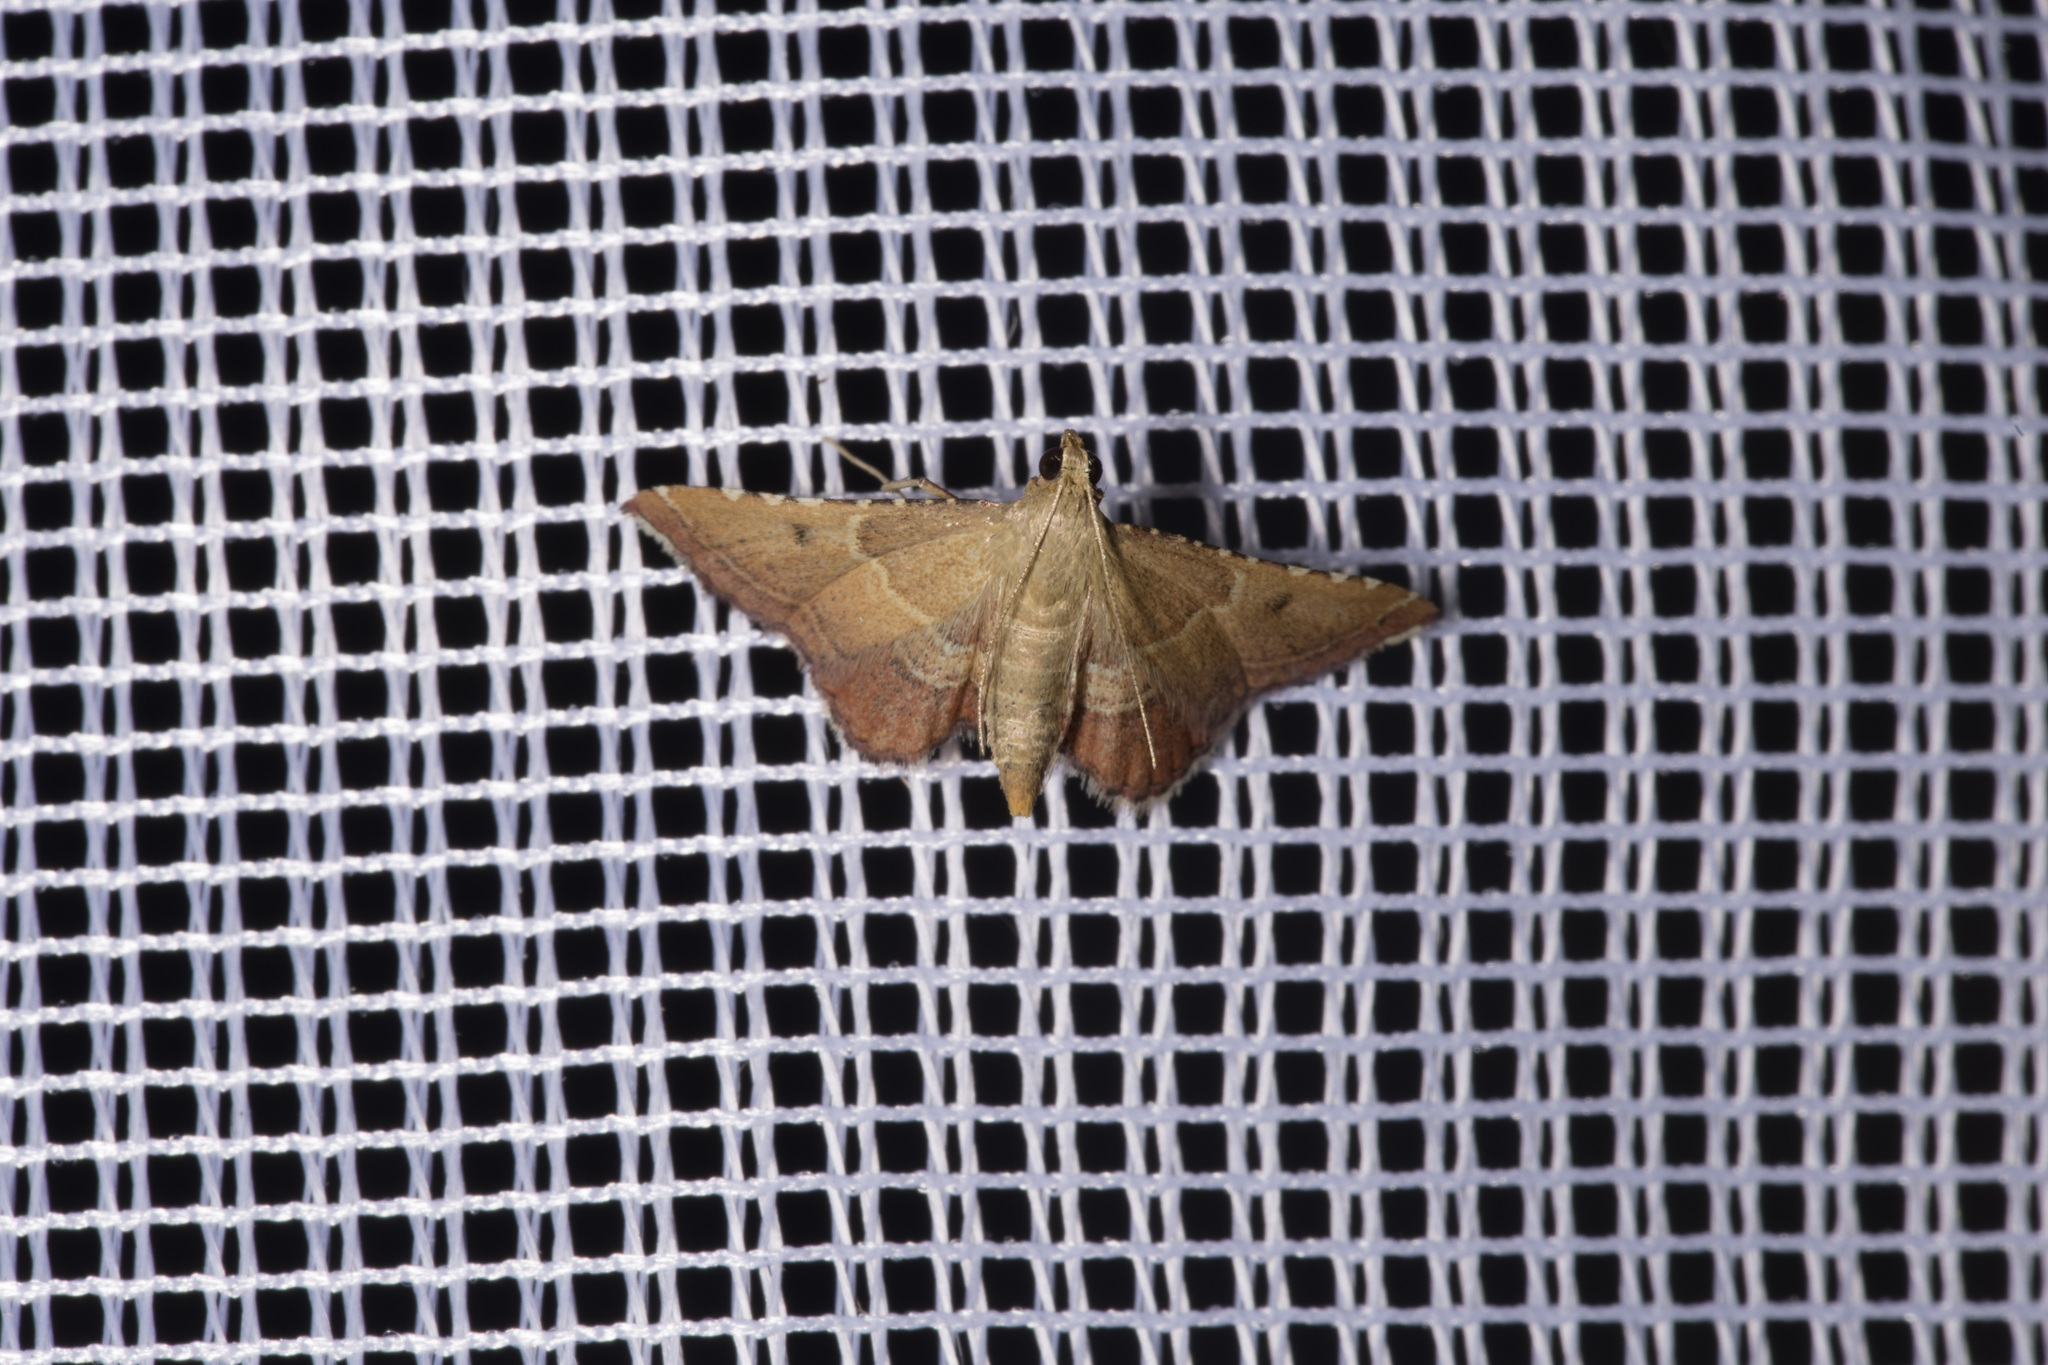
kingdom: Animalia
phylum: Arthropoda
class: Insecta
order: Lepidoptera
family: Pyralidae
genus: Endotricha
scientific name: Endotricha flammealis
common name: Rosy tabby
